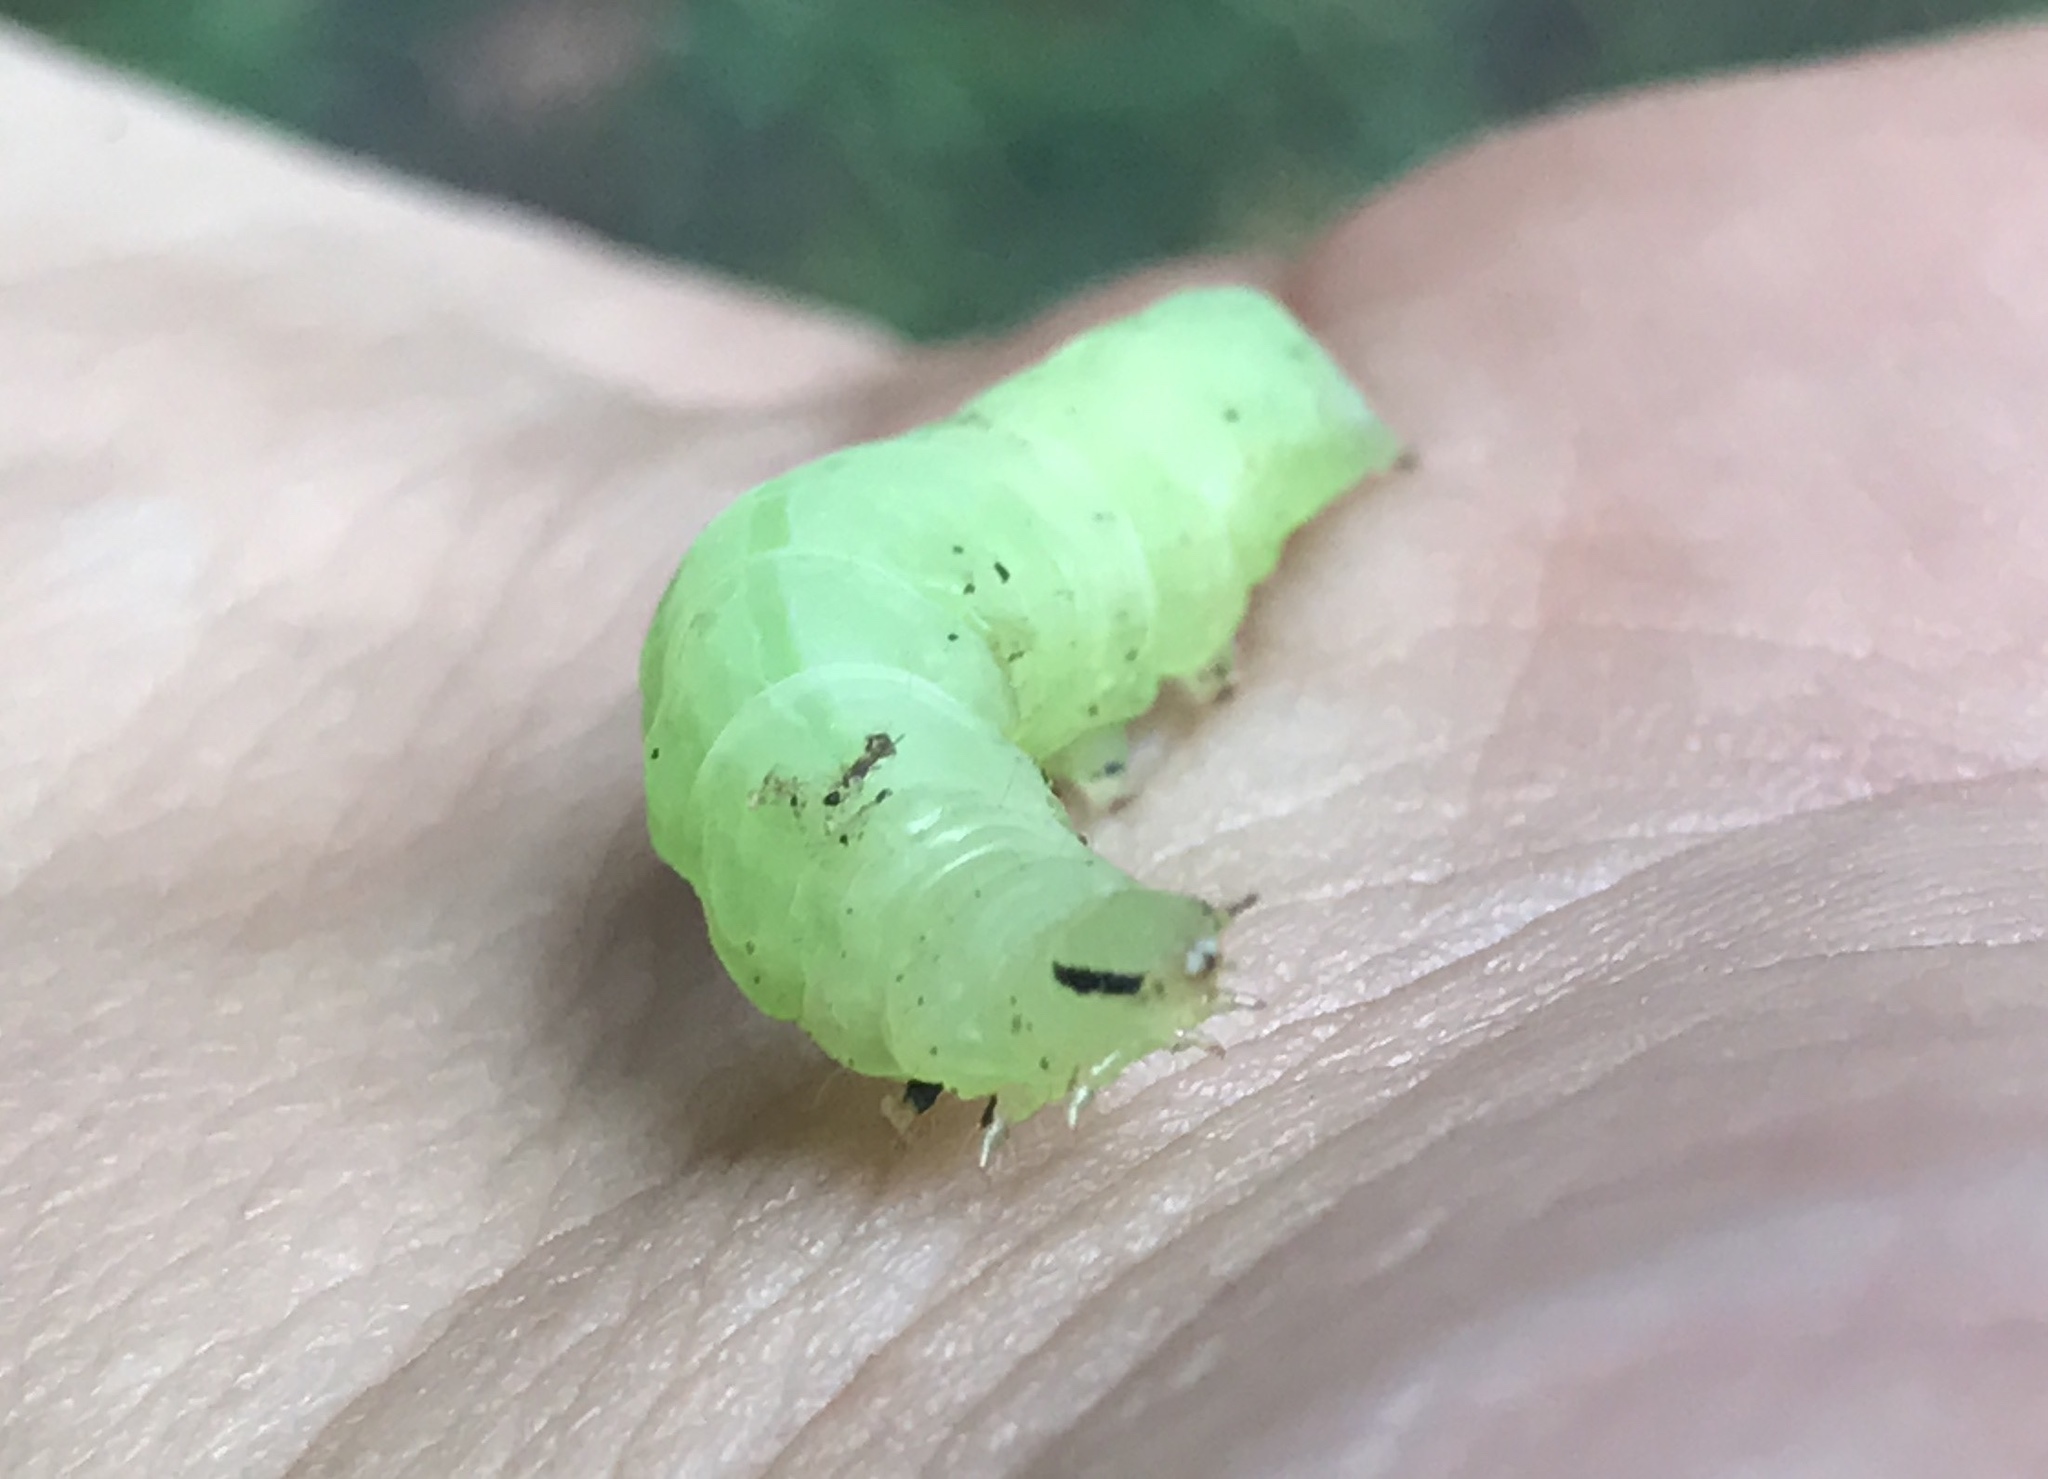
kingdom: Animalia
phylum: Arthropoda
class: Insecta
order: Lepidoptera
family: Noctuidae
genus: Enigmogramma
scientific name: Enigmogramma basigera
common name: Pink-washed looper moth
